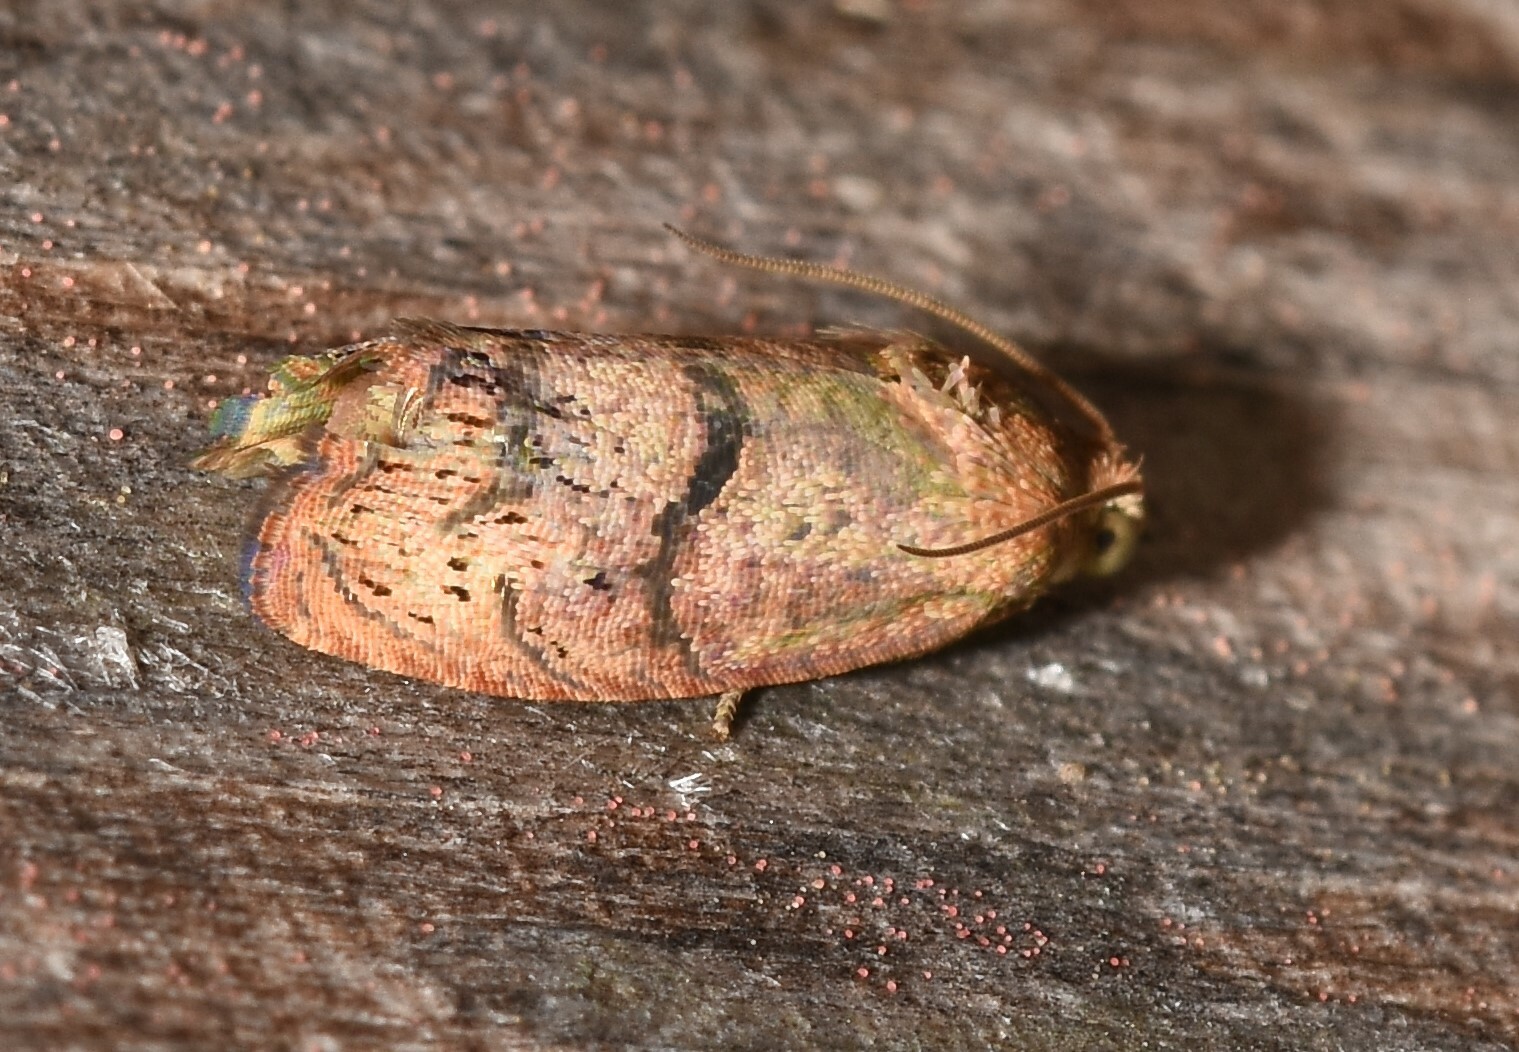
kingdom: Animalia
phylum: Arthropoda
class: Insecta
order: Lepidoptera
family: Tortricidae
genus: Cydia
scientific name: Cydia latiferreana
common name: Filbertworm moth
